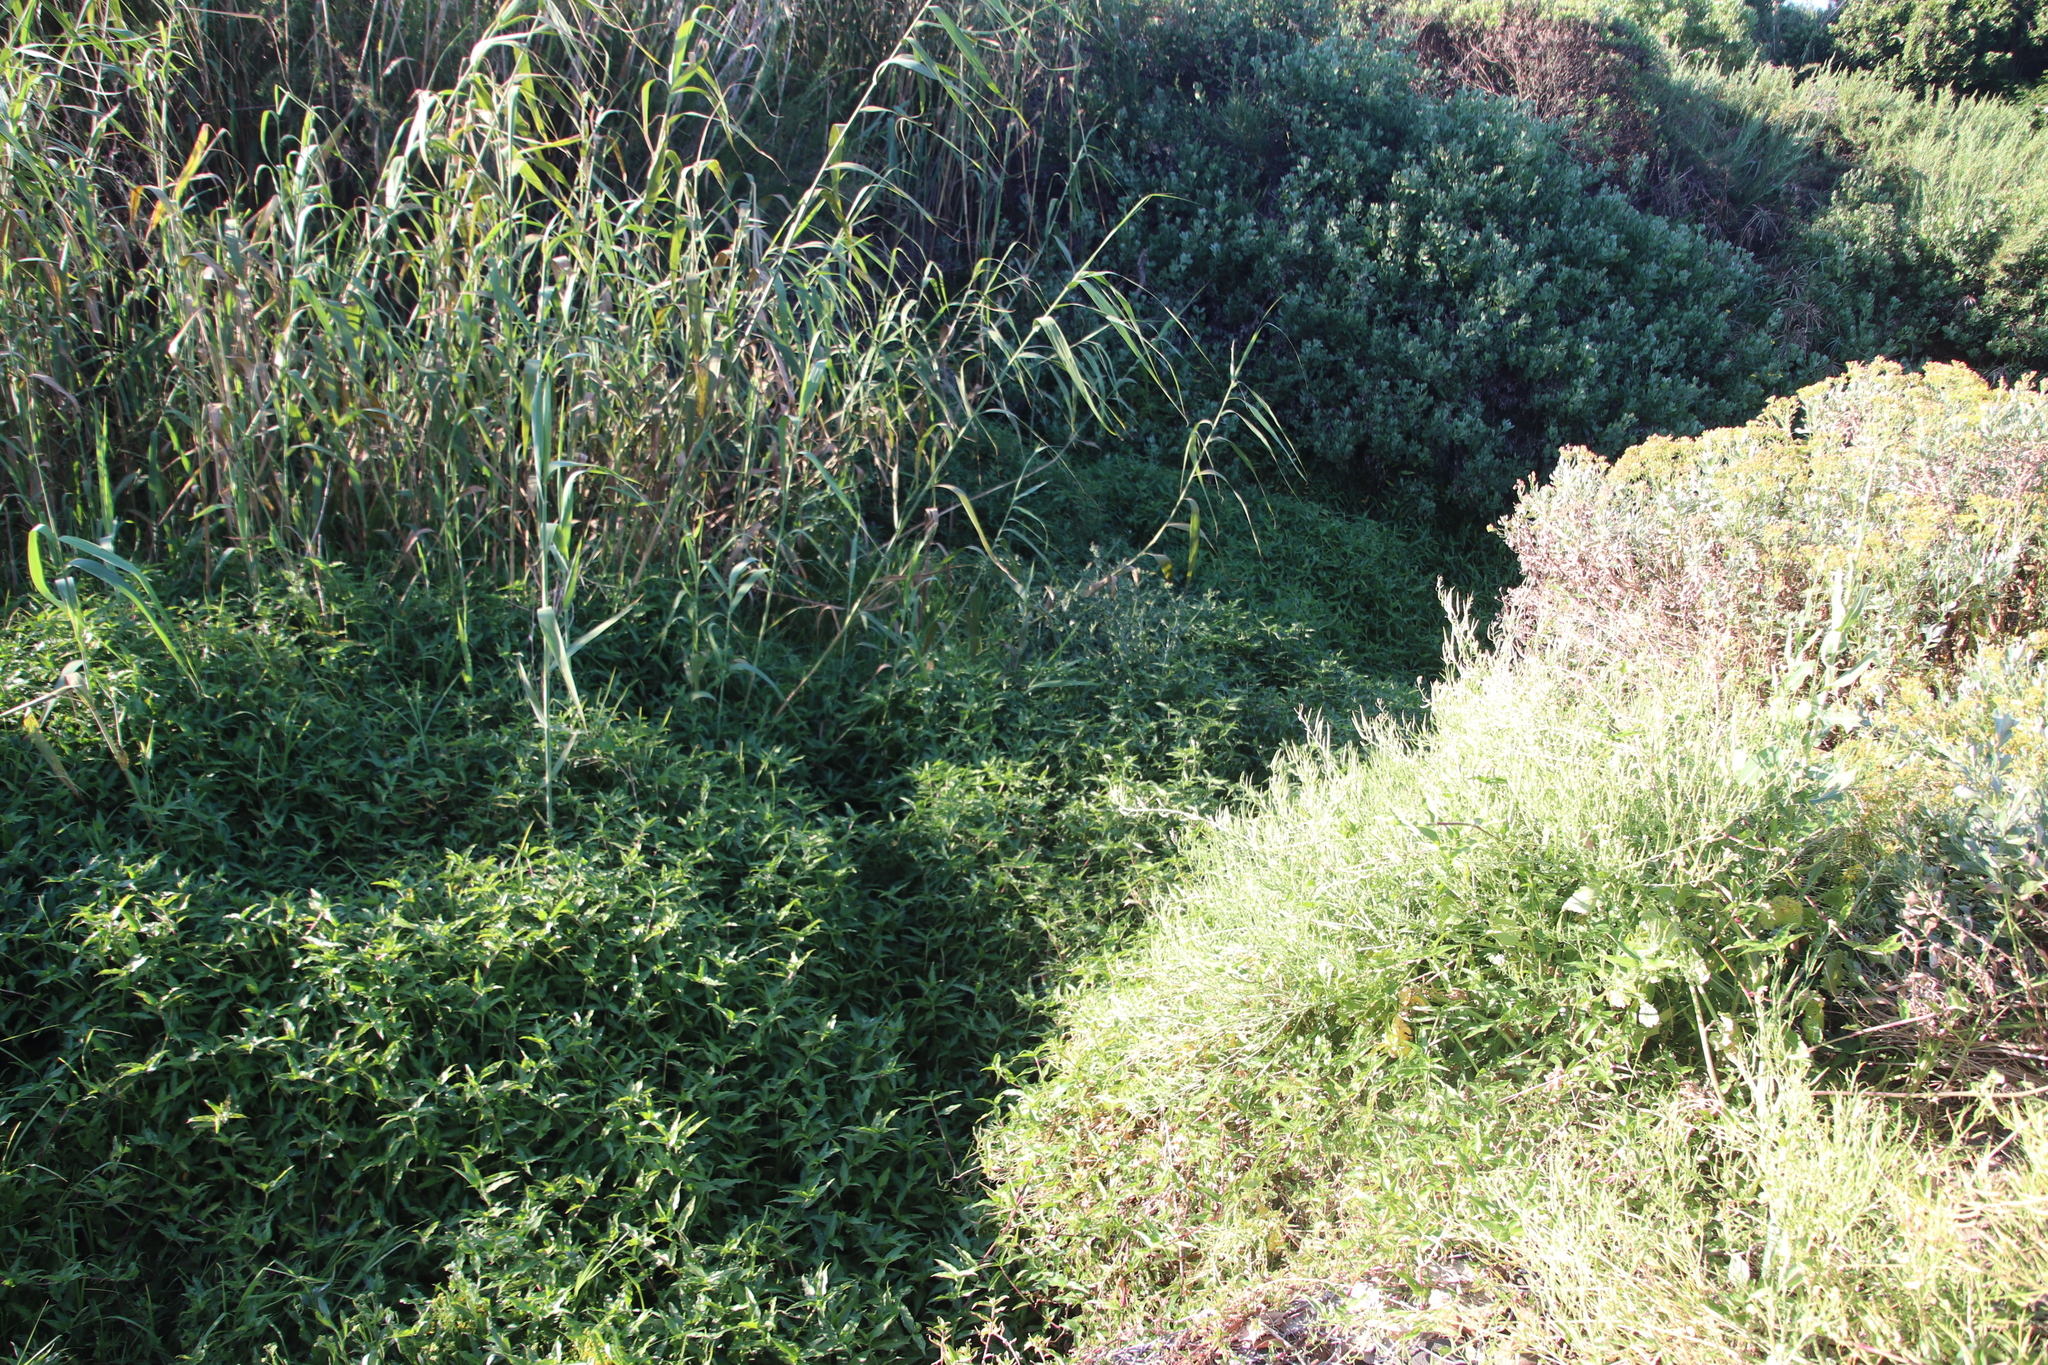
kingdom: Plantae
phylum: Tracheophyta
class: Liliopsida
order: Commelinales
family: Commelinaceae
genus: Commelina
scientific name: Commelina diffusa
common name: Climbing dayflower
